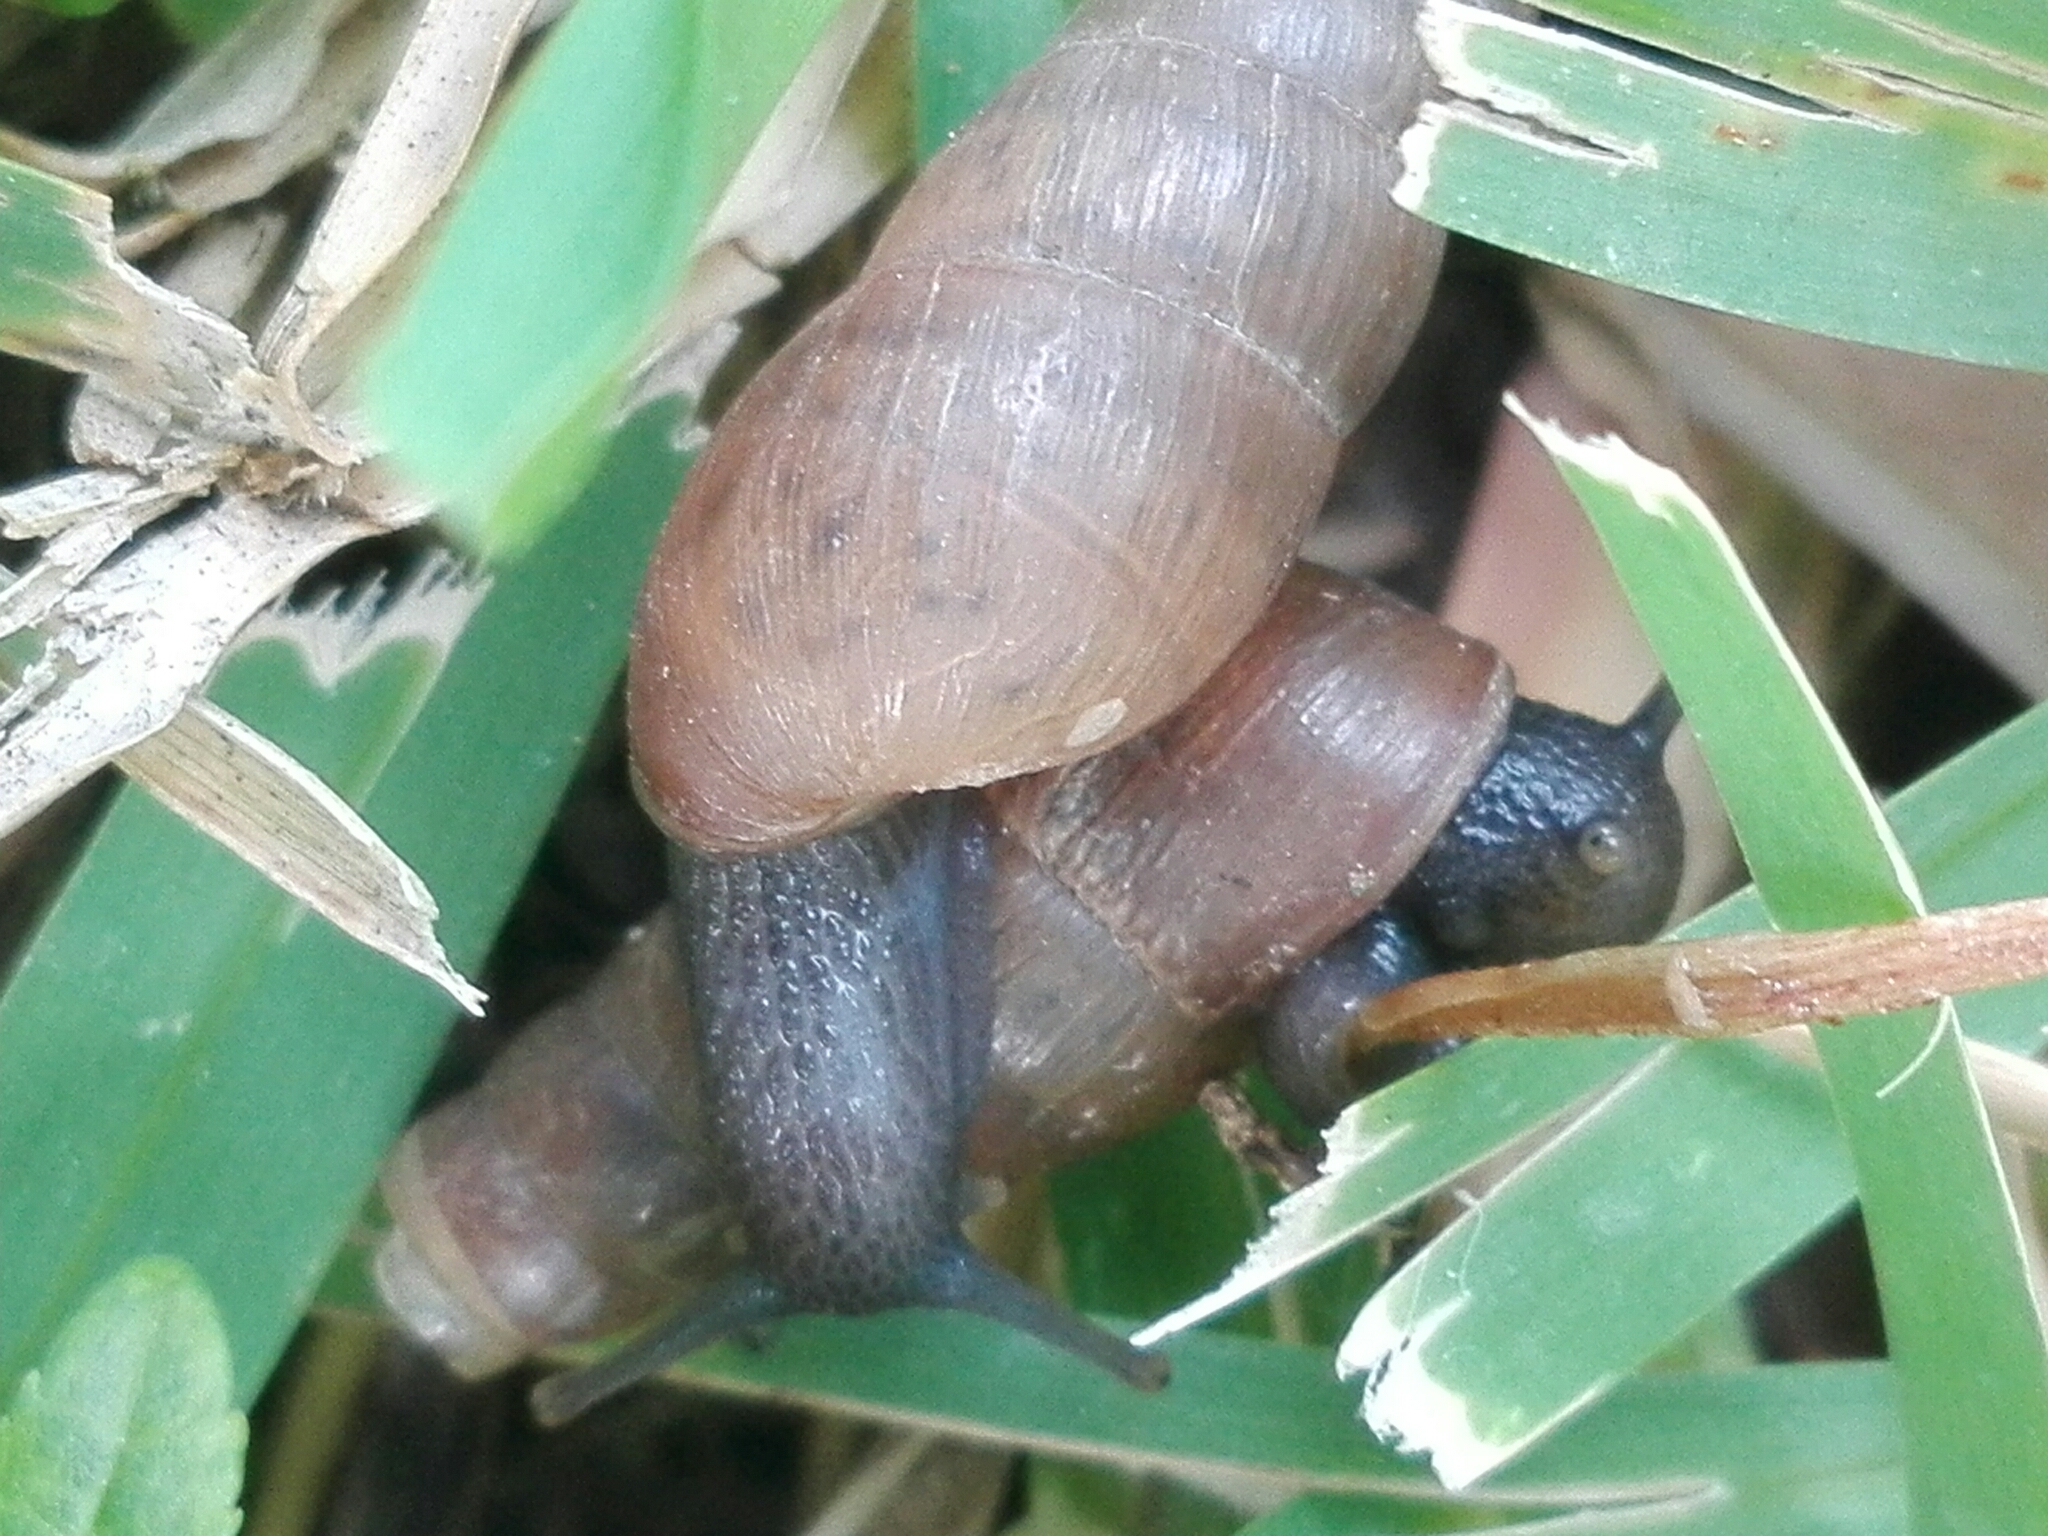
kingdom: Animalia
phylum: Mollusca
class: Gastropoda
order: Stylommatophora
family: Achatinidae
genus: Rumina
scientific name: Rumina decollata
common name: Decollate snail
